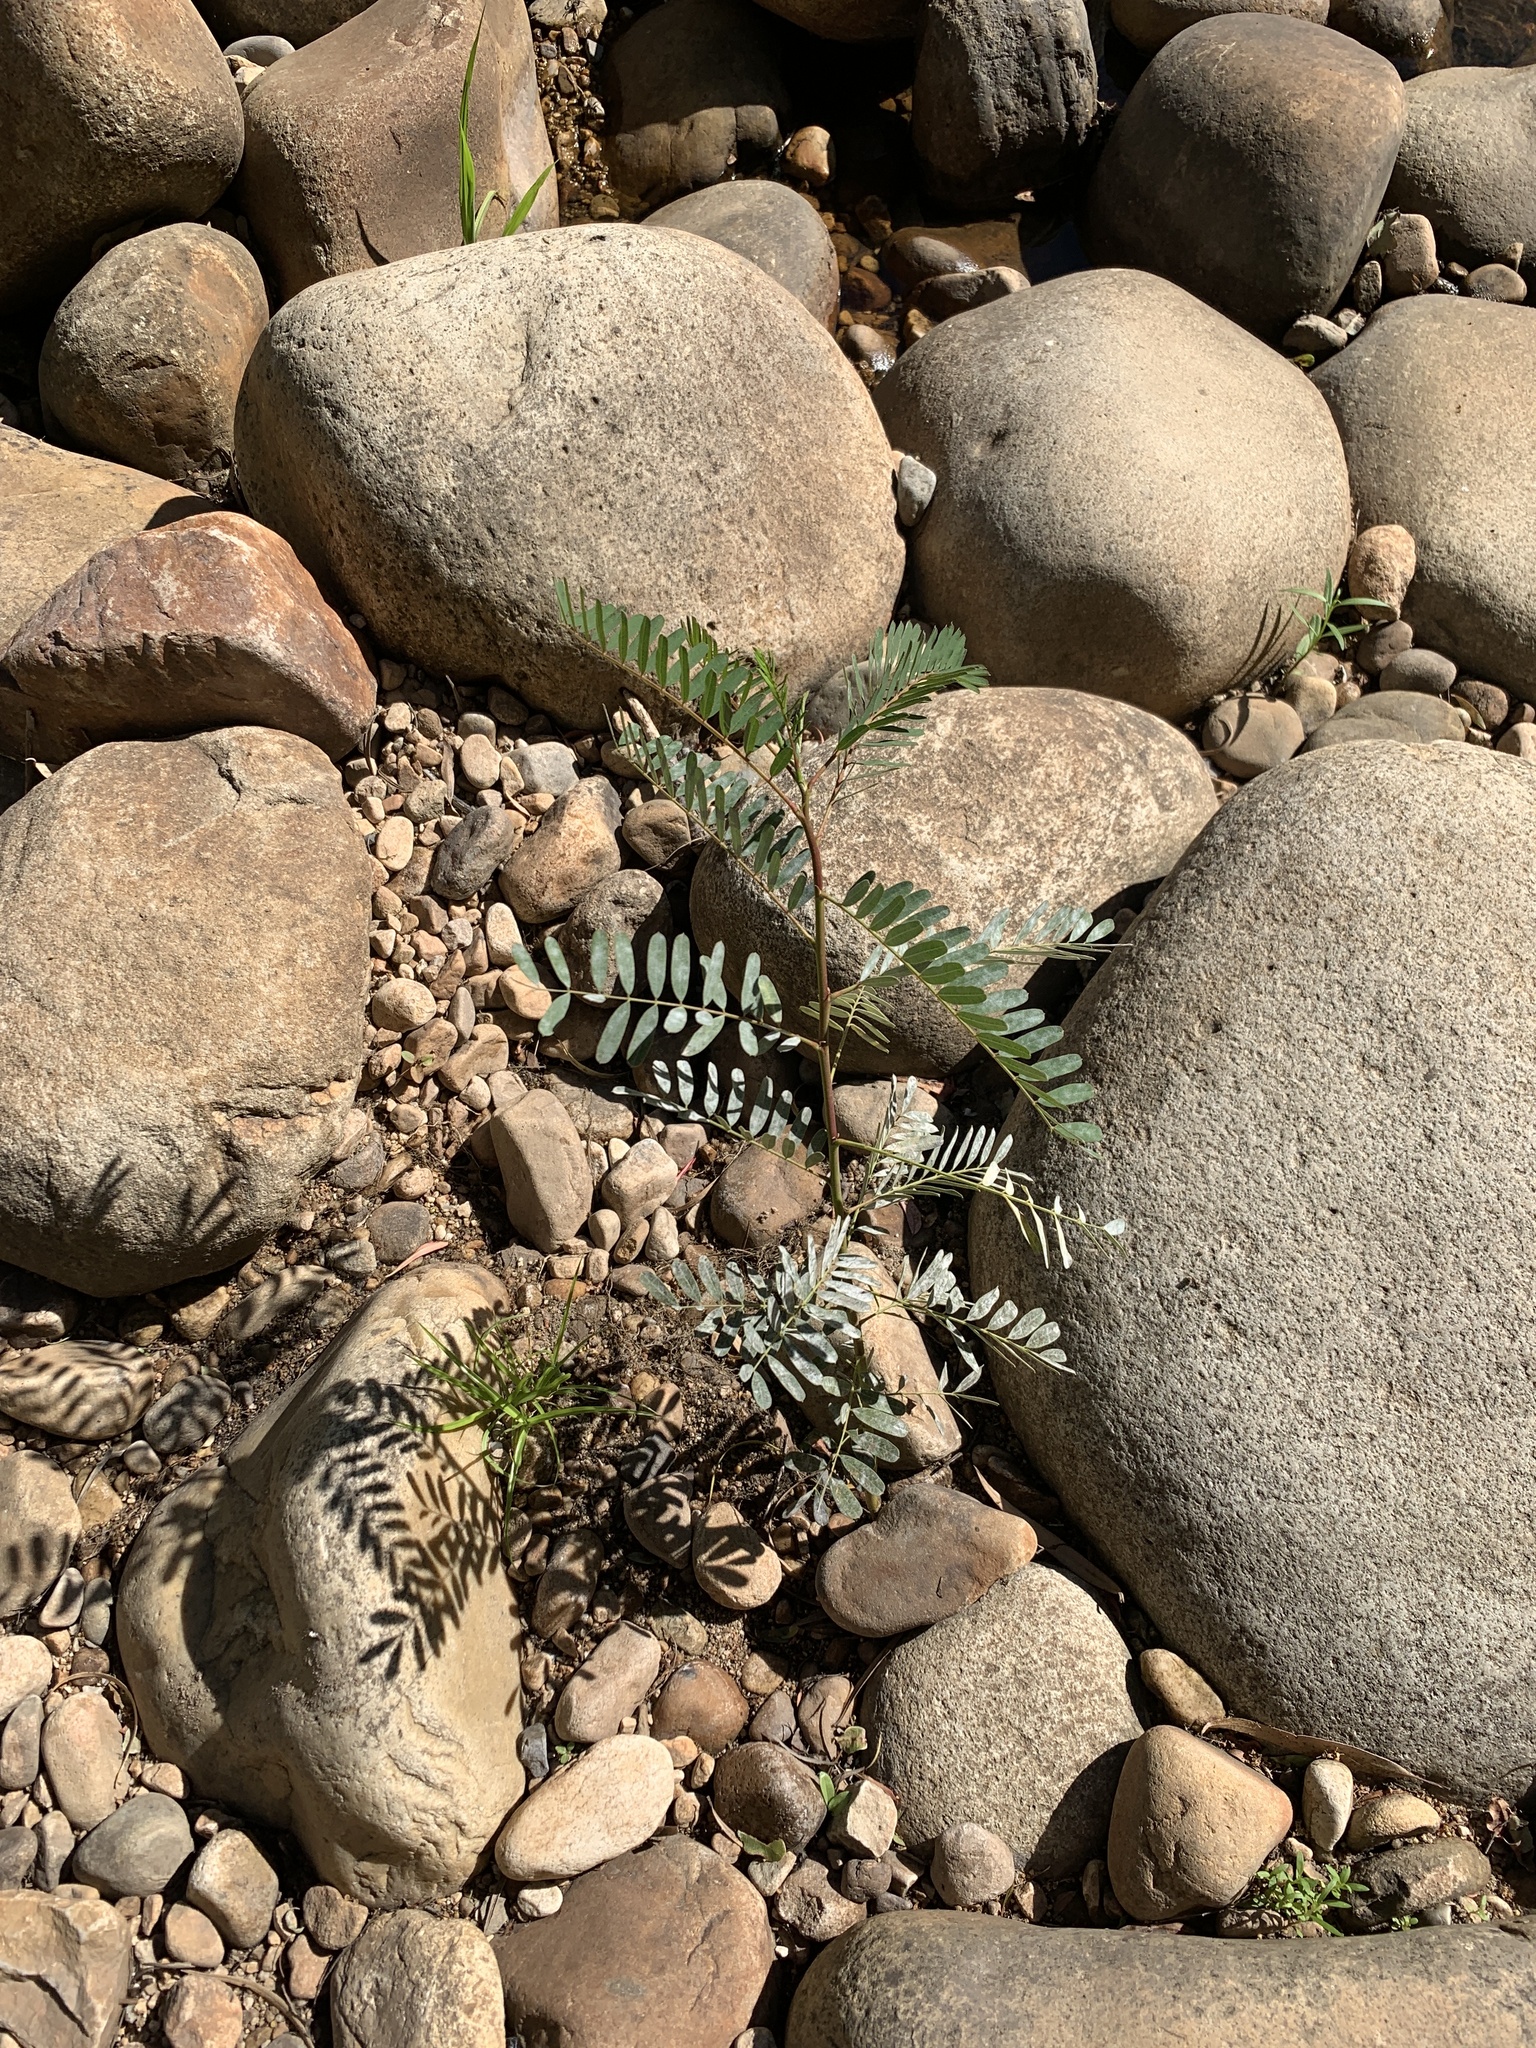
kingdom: Plantae
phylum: Tracheophyta
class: Magnoliopsida
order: Fabales
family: Fabaceae
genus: Sesbania
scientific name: Sesbania punicea
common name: Rattlebox
